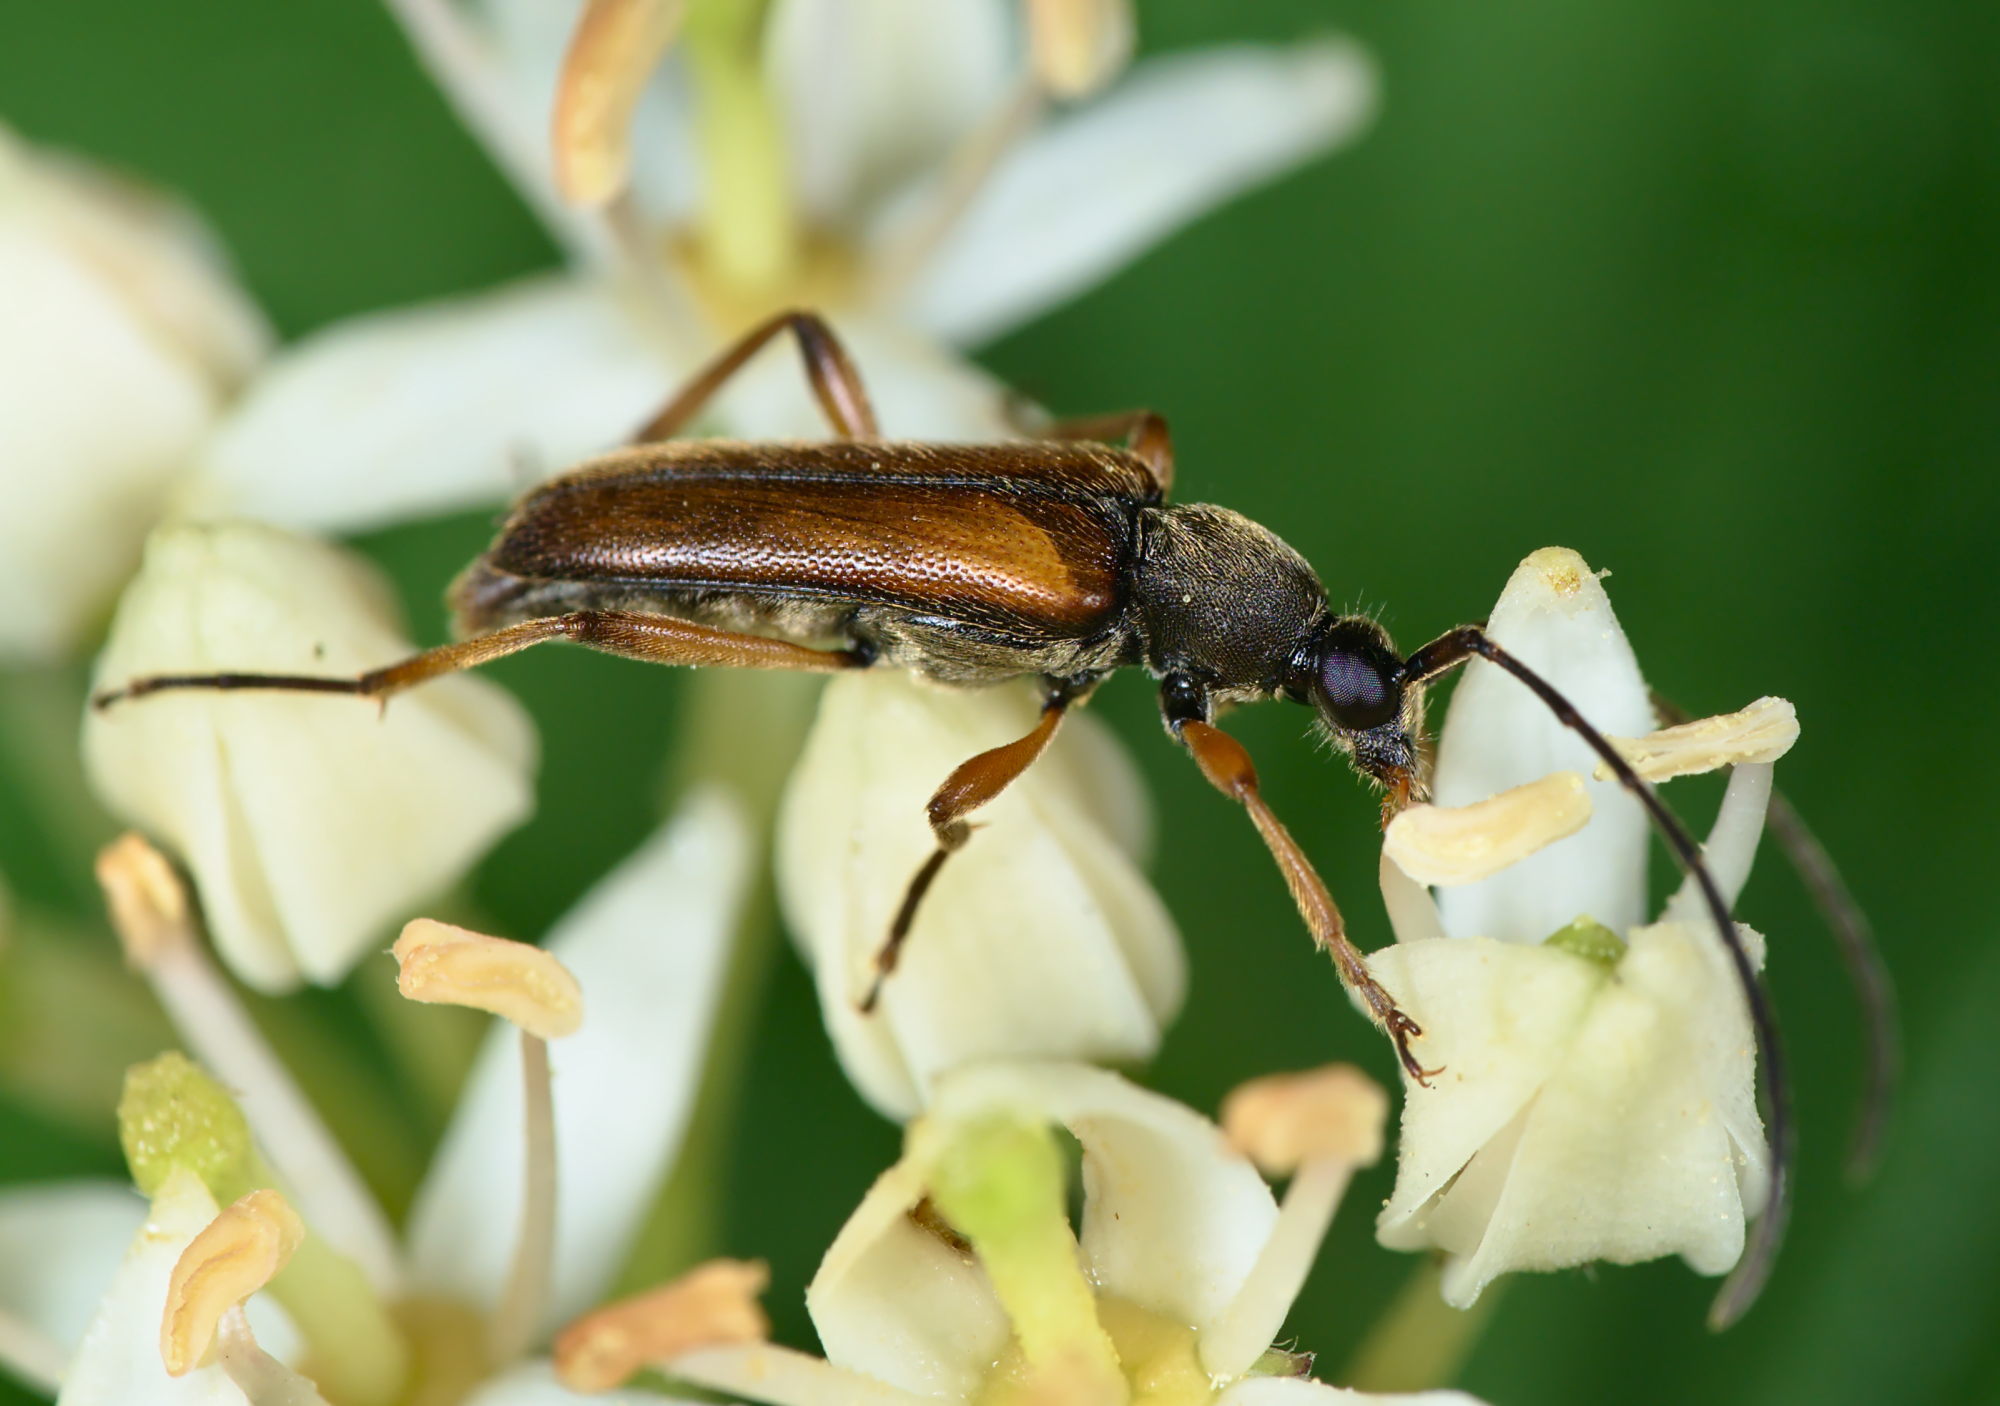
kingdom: Animalia
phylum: Arthropoda
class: Insecta
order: Coleoptera
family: Cerambycidae
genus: Alosterna
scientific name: Alosterna tabacicolor
